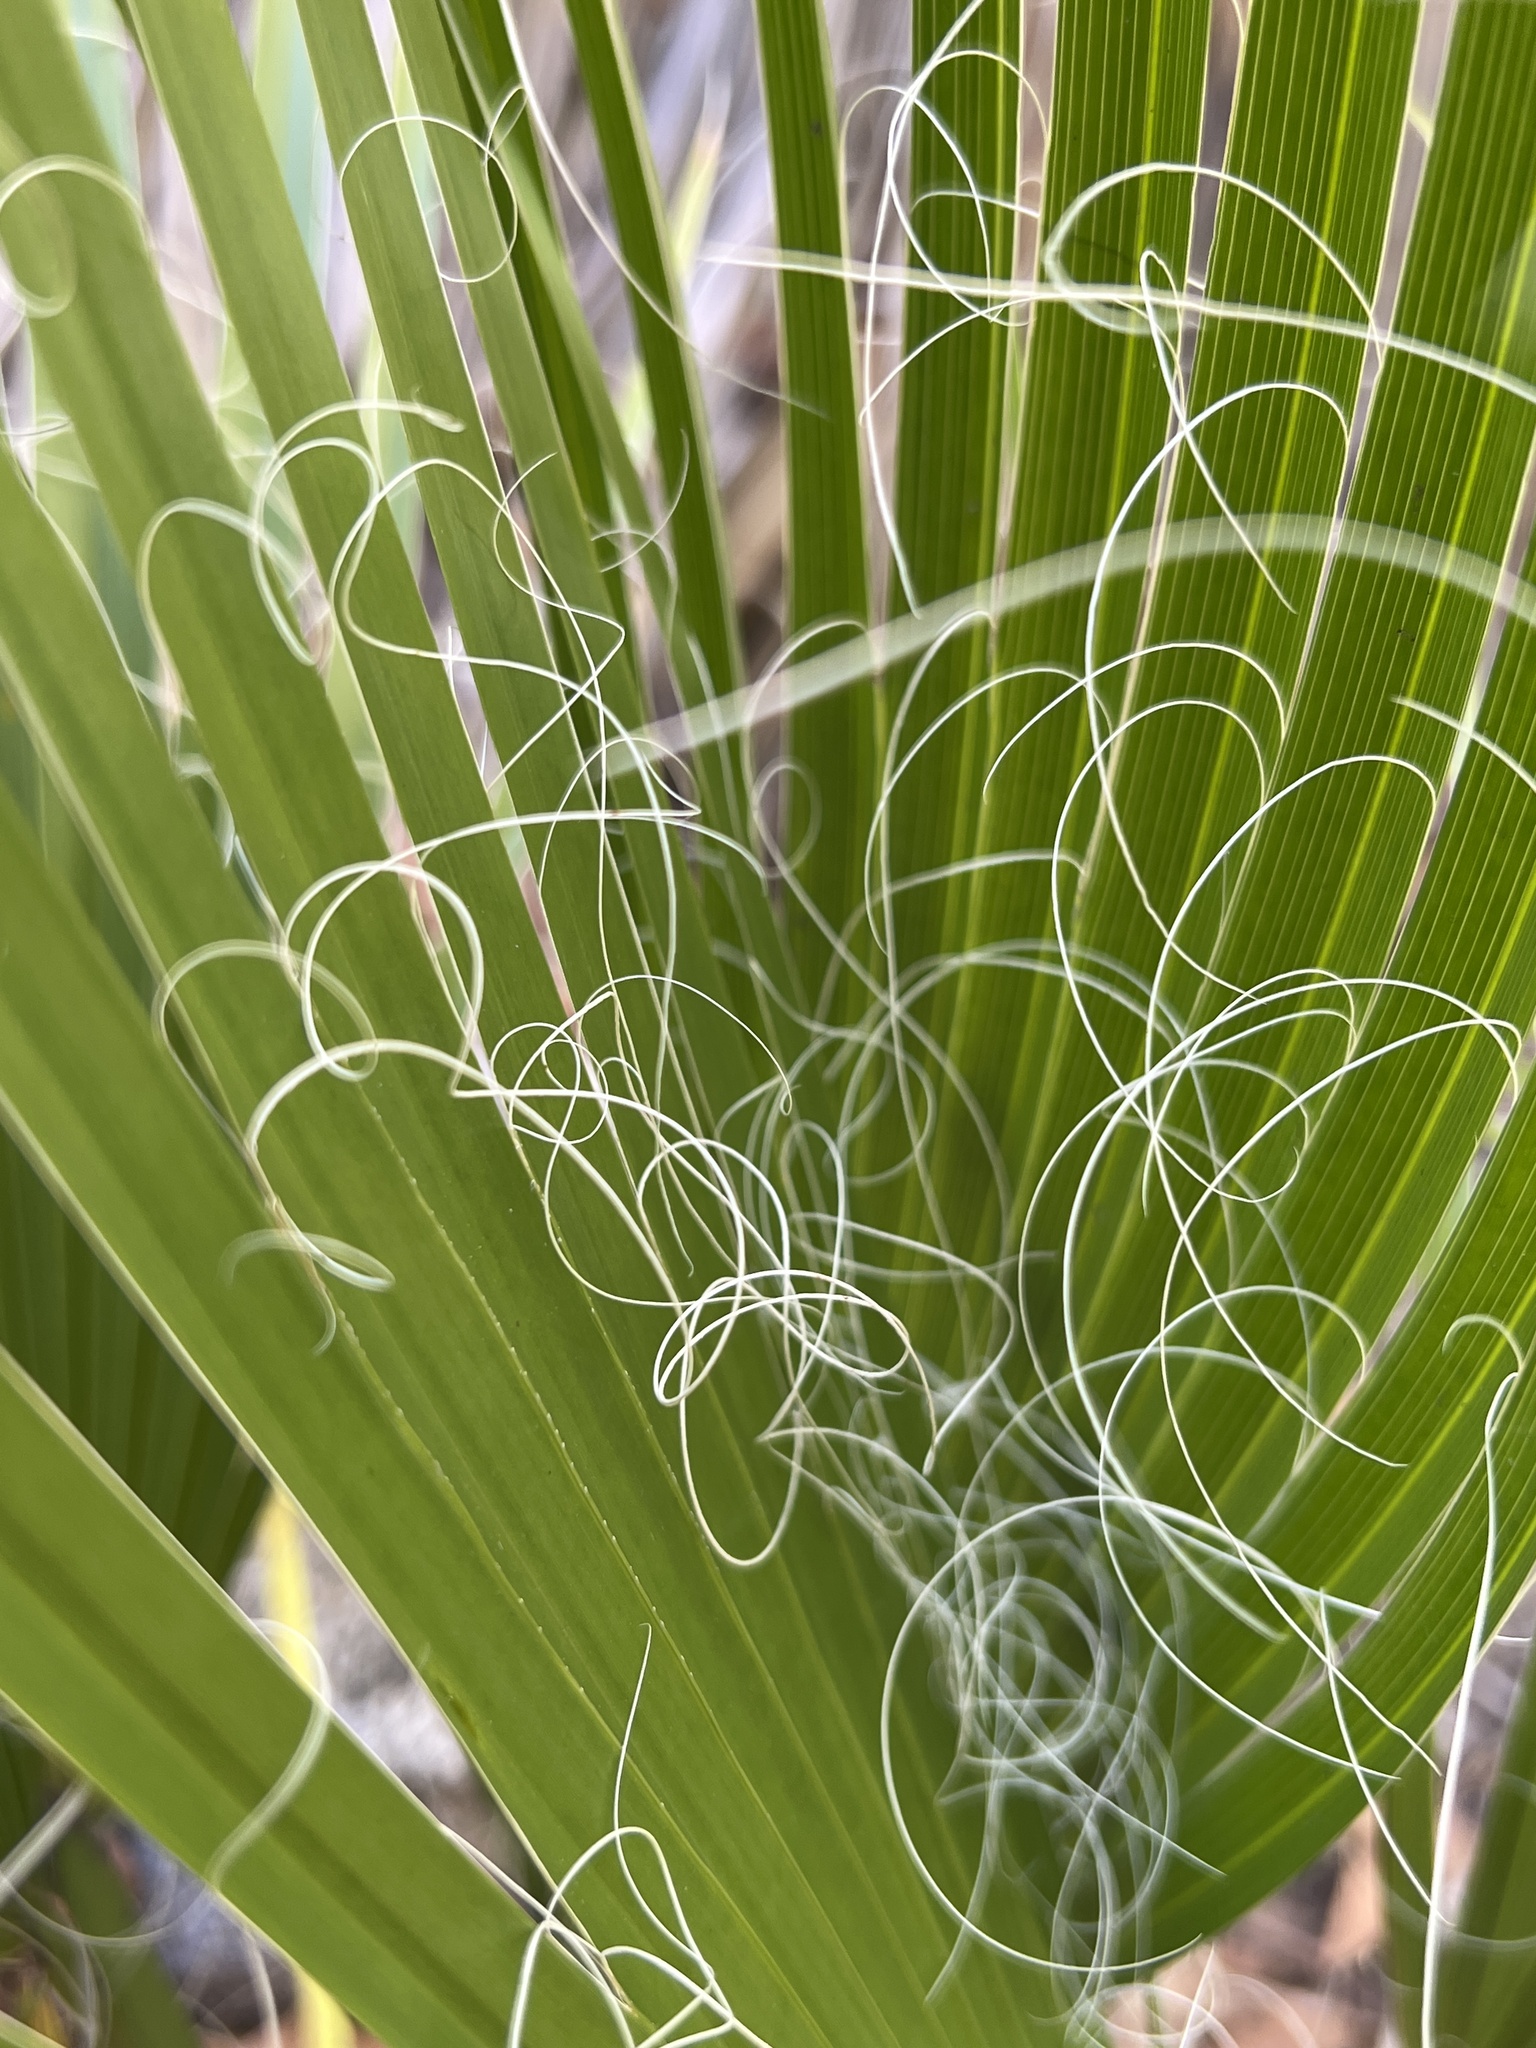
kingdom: Plantae
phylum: Tracheophyta
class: Liliopsida
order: Arecales
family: Arecaceae
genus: Washingtonia
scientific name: Washingtonia filifera
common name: California fan palm
